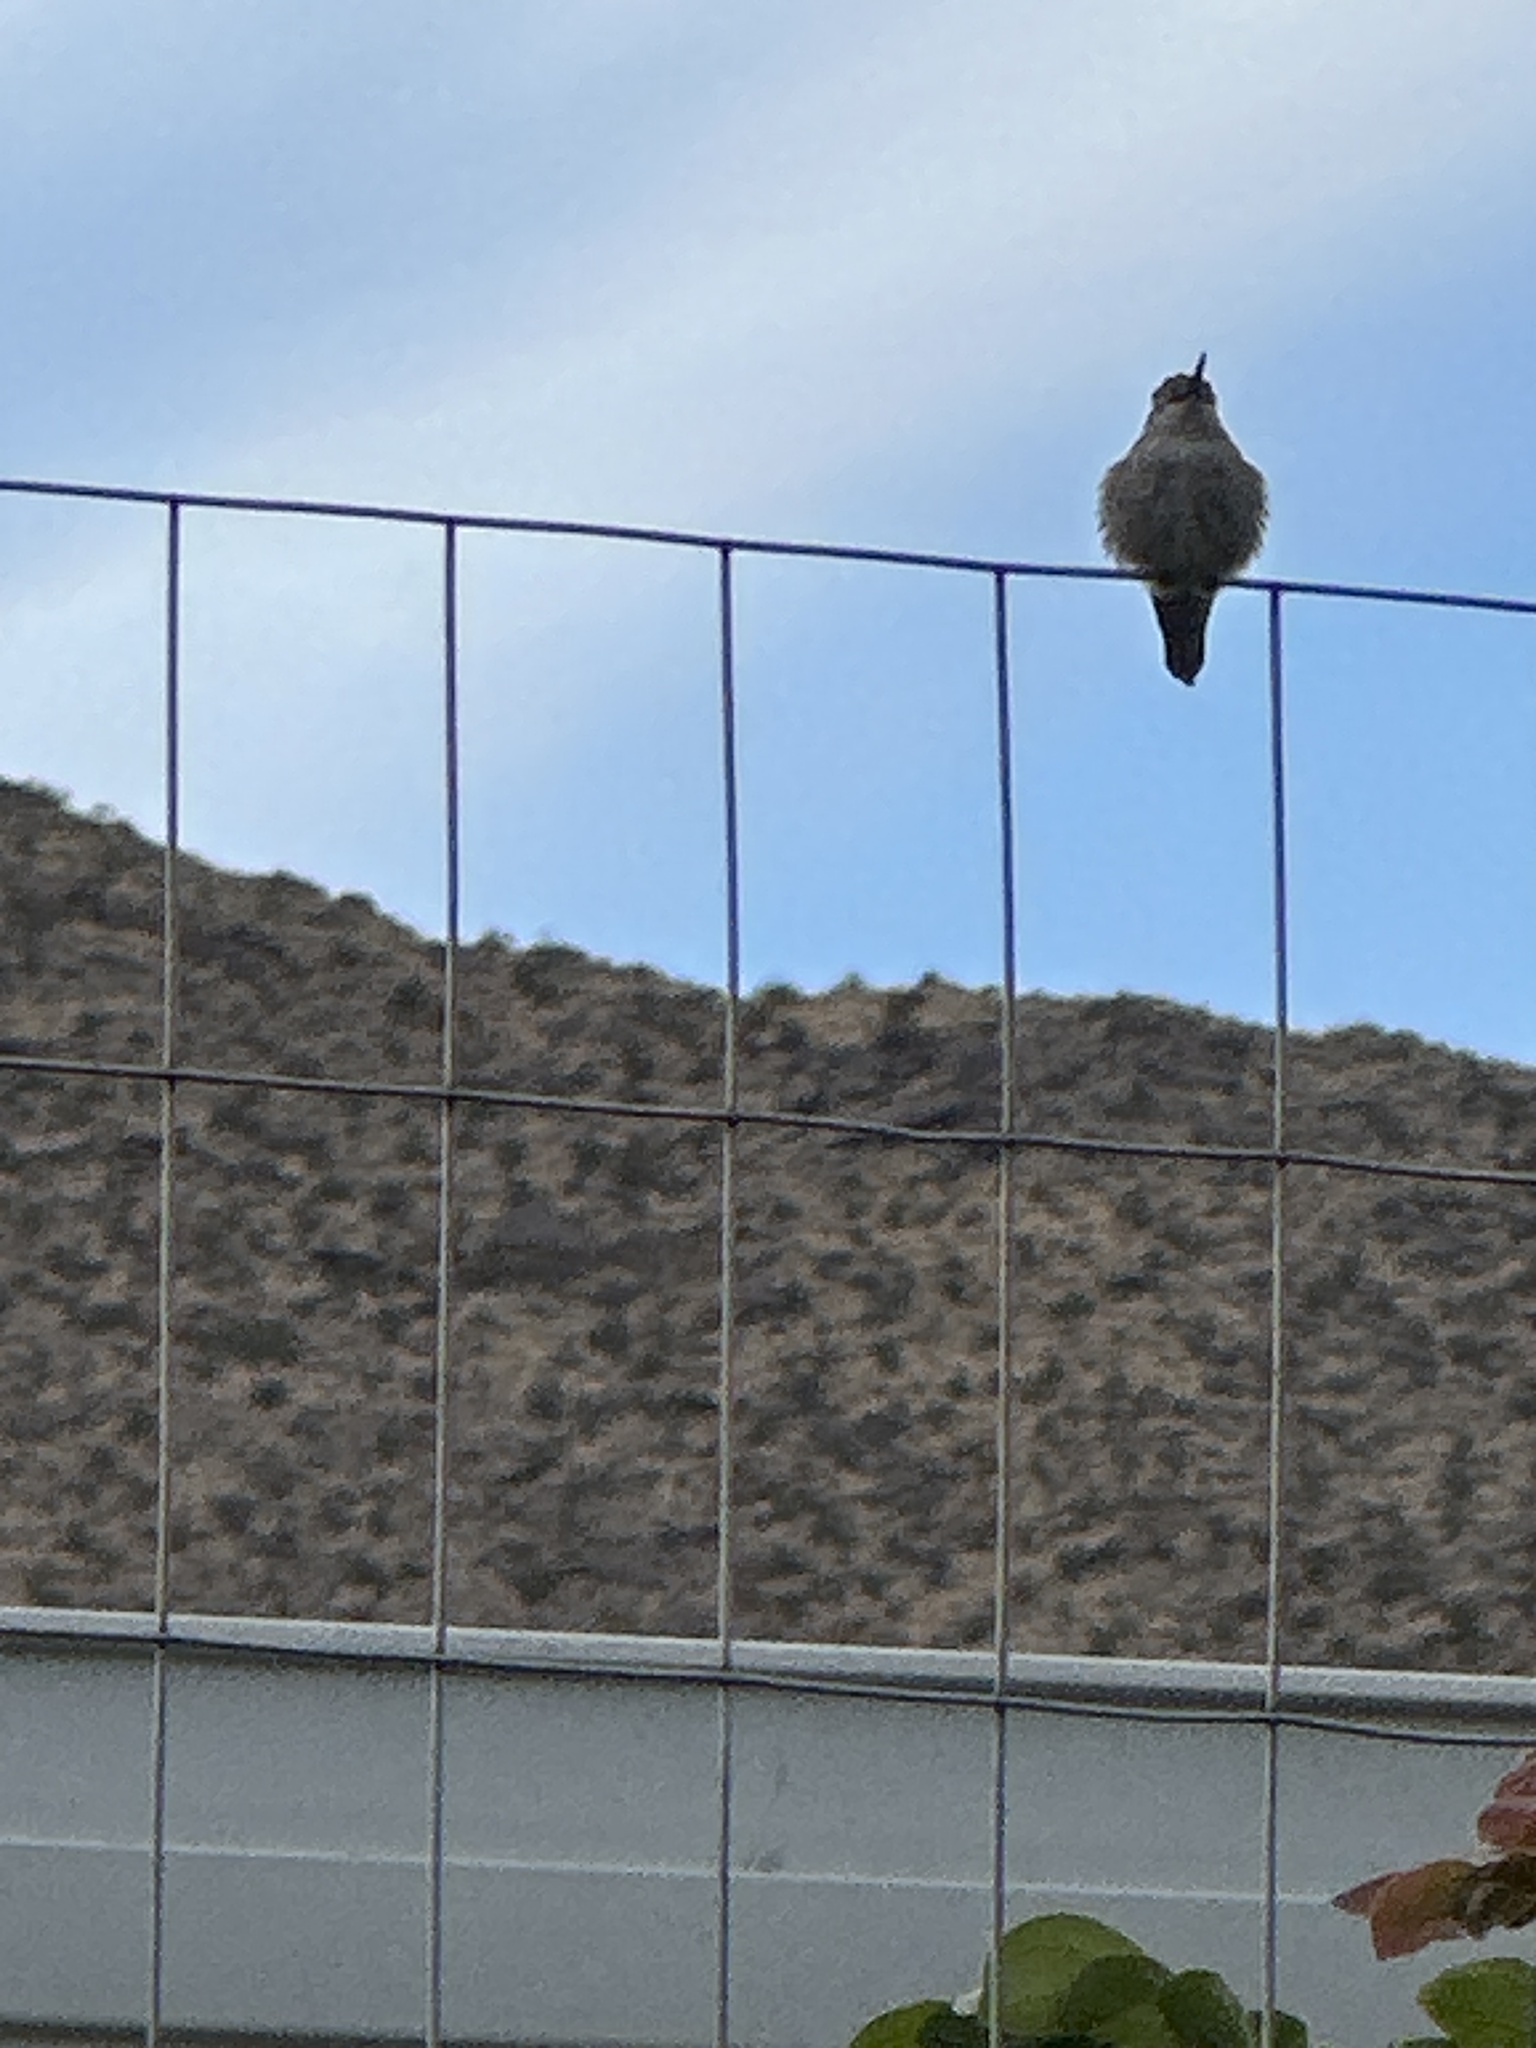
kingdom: Animalia
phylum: Chordata
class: Aves
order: Apodiformes
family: Trochilidae
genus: Calypte
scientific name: Calypte costae
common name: Costa's hummingbird
